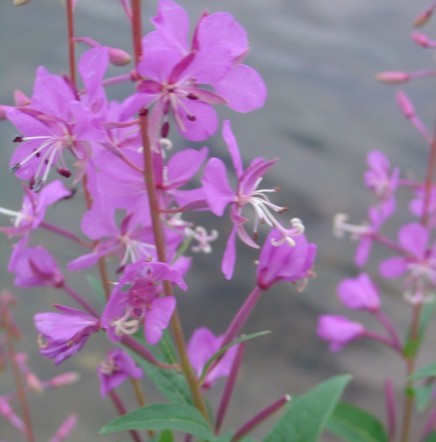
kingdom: Plantae
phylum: Tracheophyta
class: Magnoliopsida
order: Myrtales
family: Onagraceae
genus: Chamaenerion
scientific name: Chamaenerion angustifolium
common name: Fireweed
